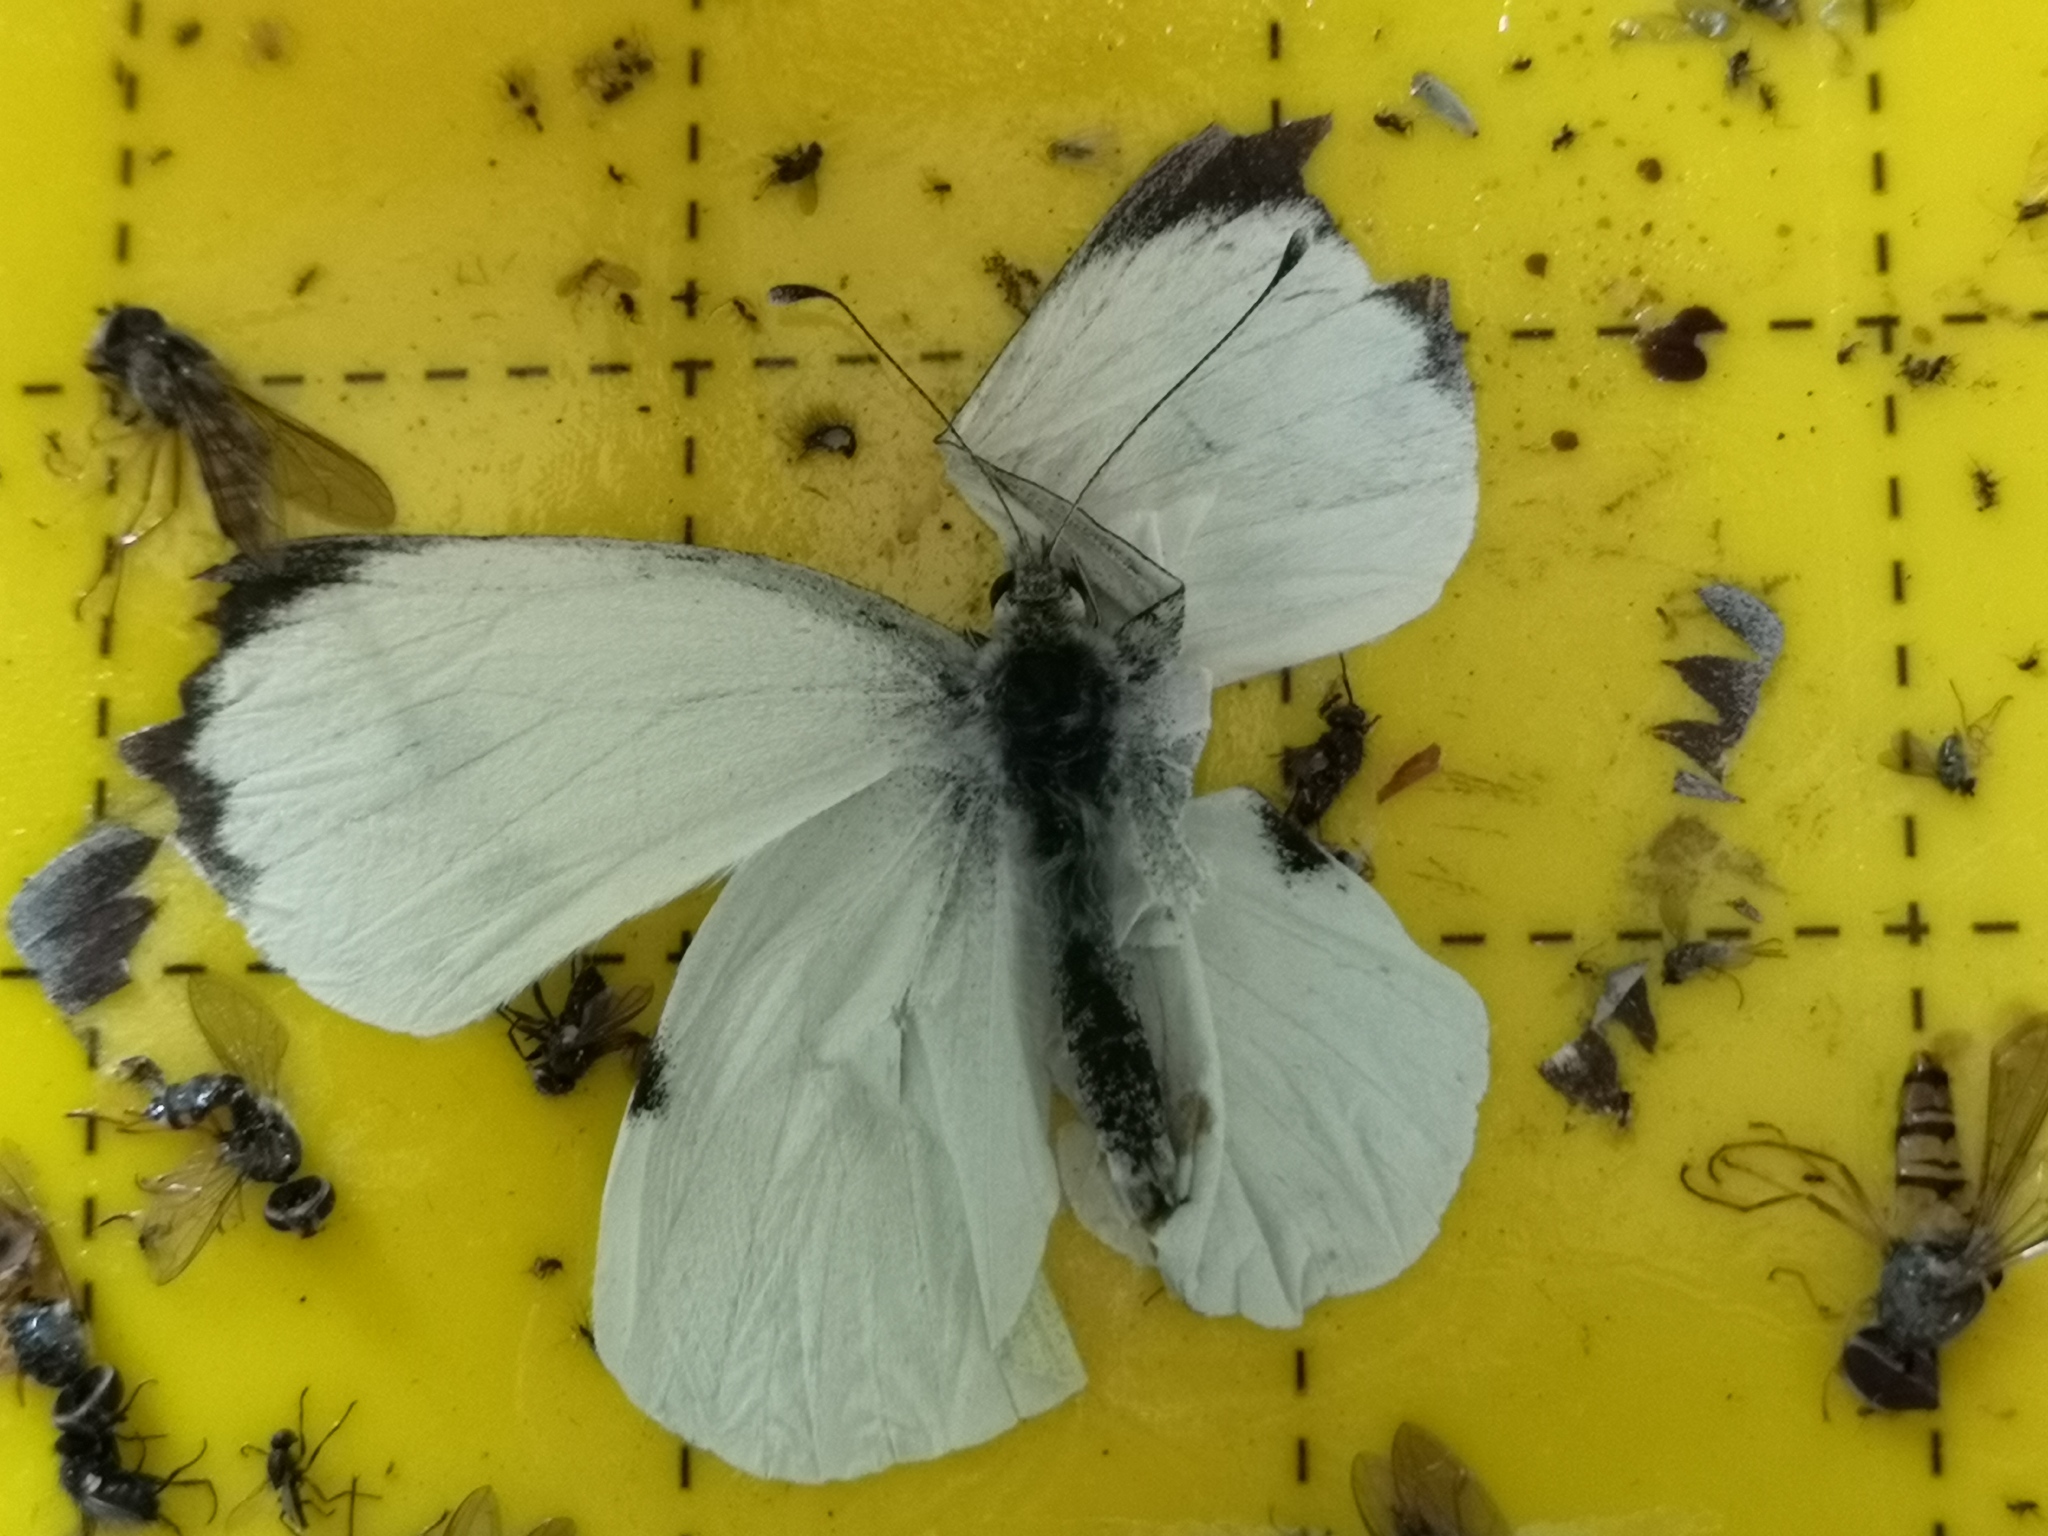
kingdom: Animalia
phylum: Arthropoda
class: Insecta
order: Lepidoptera
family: Pieridae
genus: Pieris
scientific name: Pieris brassicae
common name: Large white
